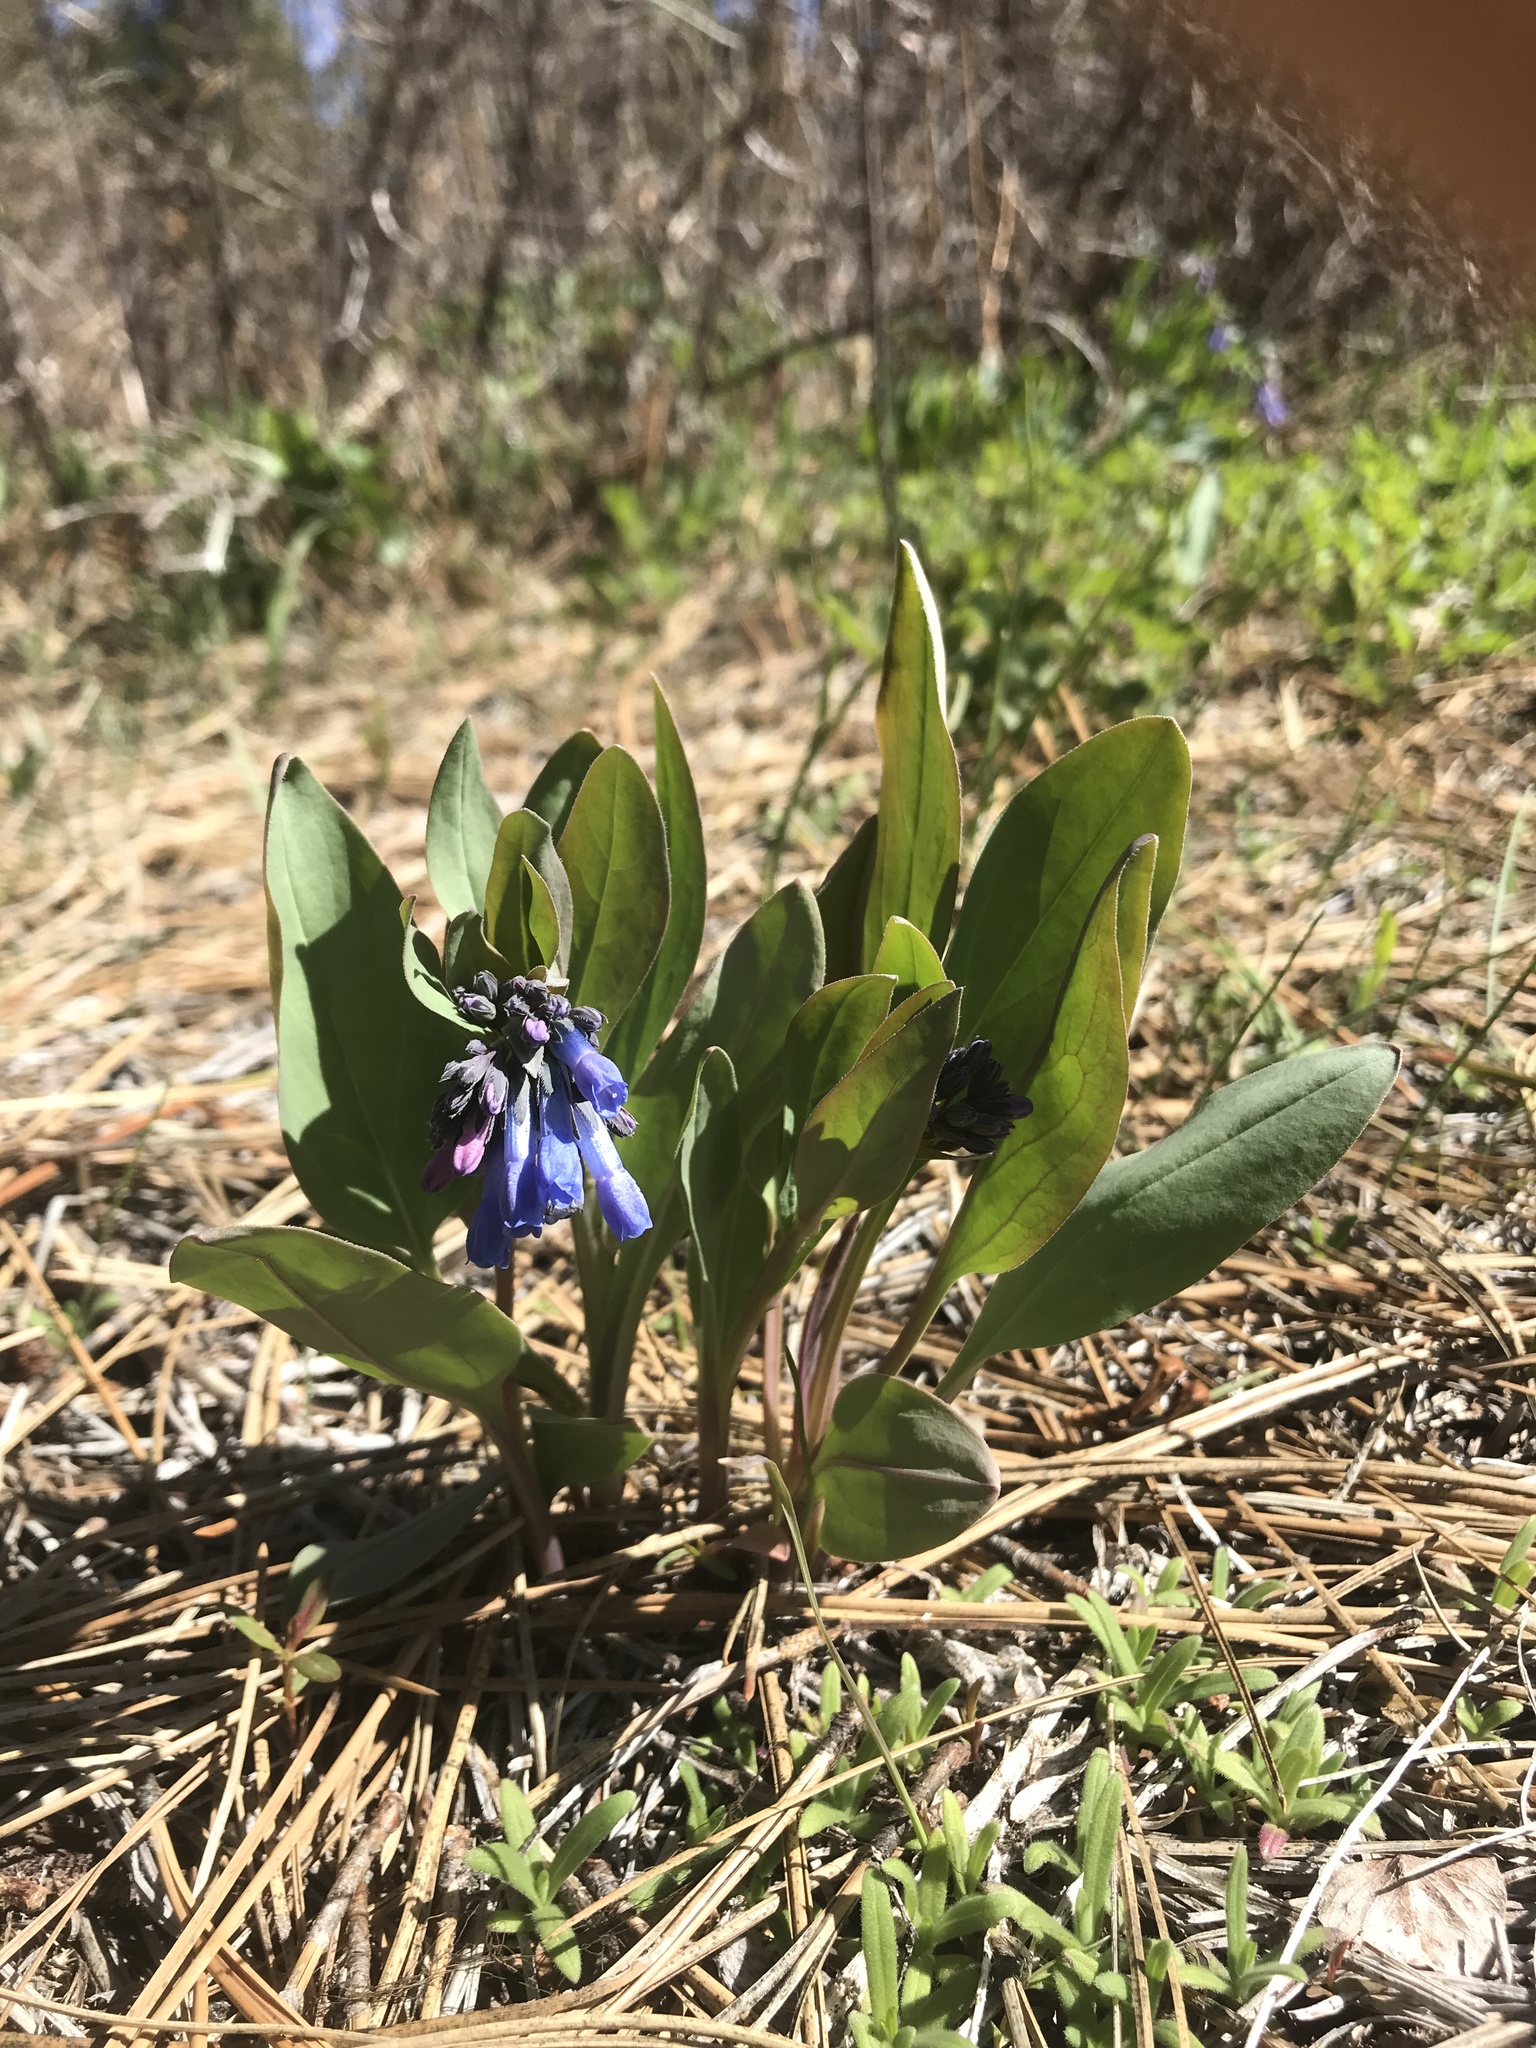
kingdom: Plantae
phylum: Tracheophyta
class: Magnoliopsida
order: Boraginales
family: Boraginaceae
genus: Mertensia
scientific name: Mertensia longiflora
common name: Large-flowered bluebells
